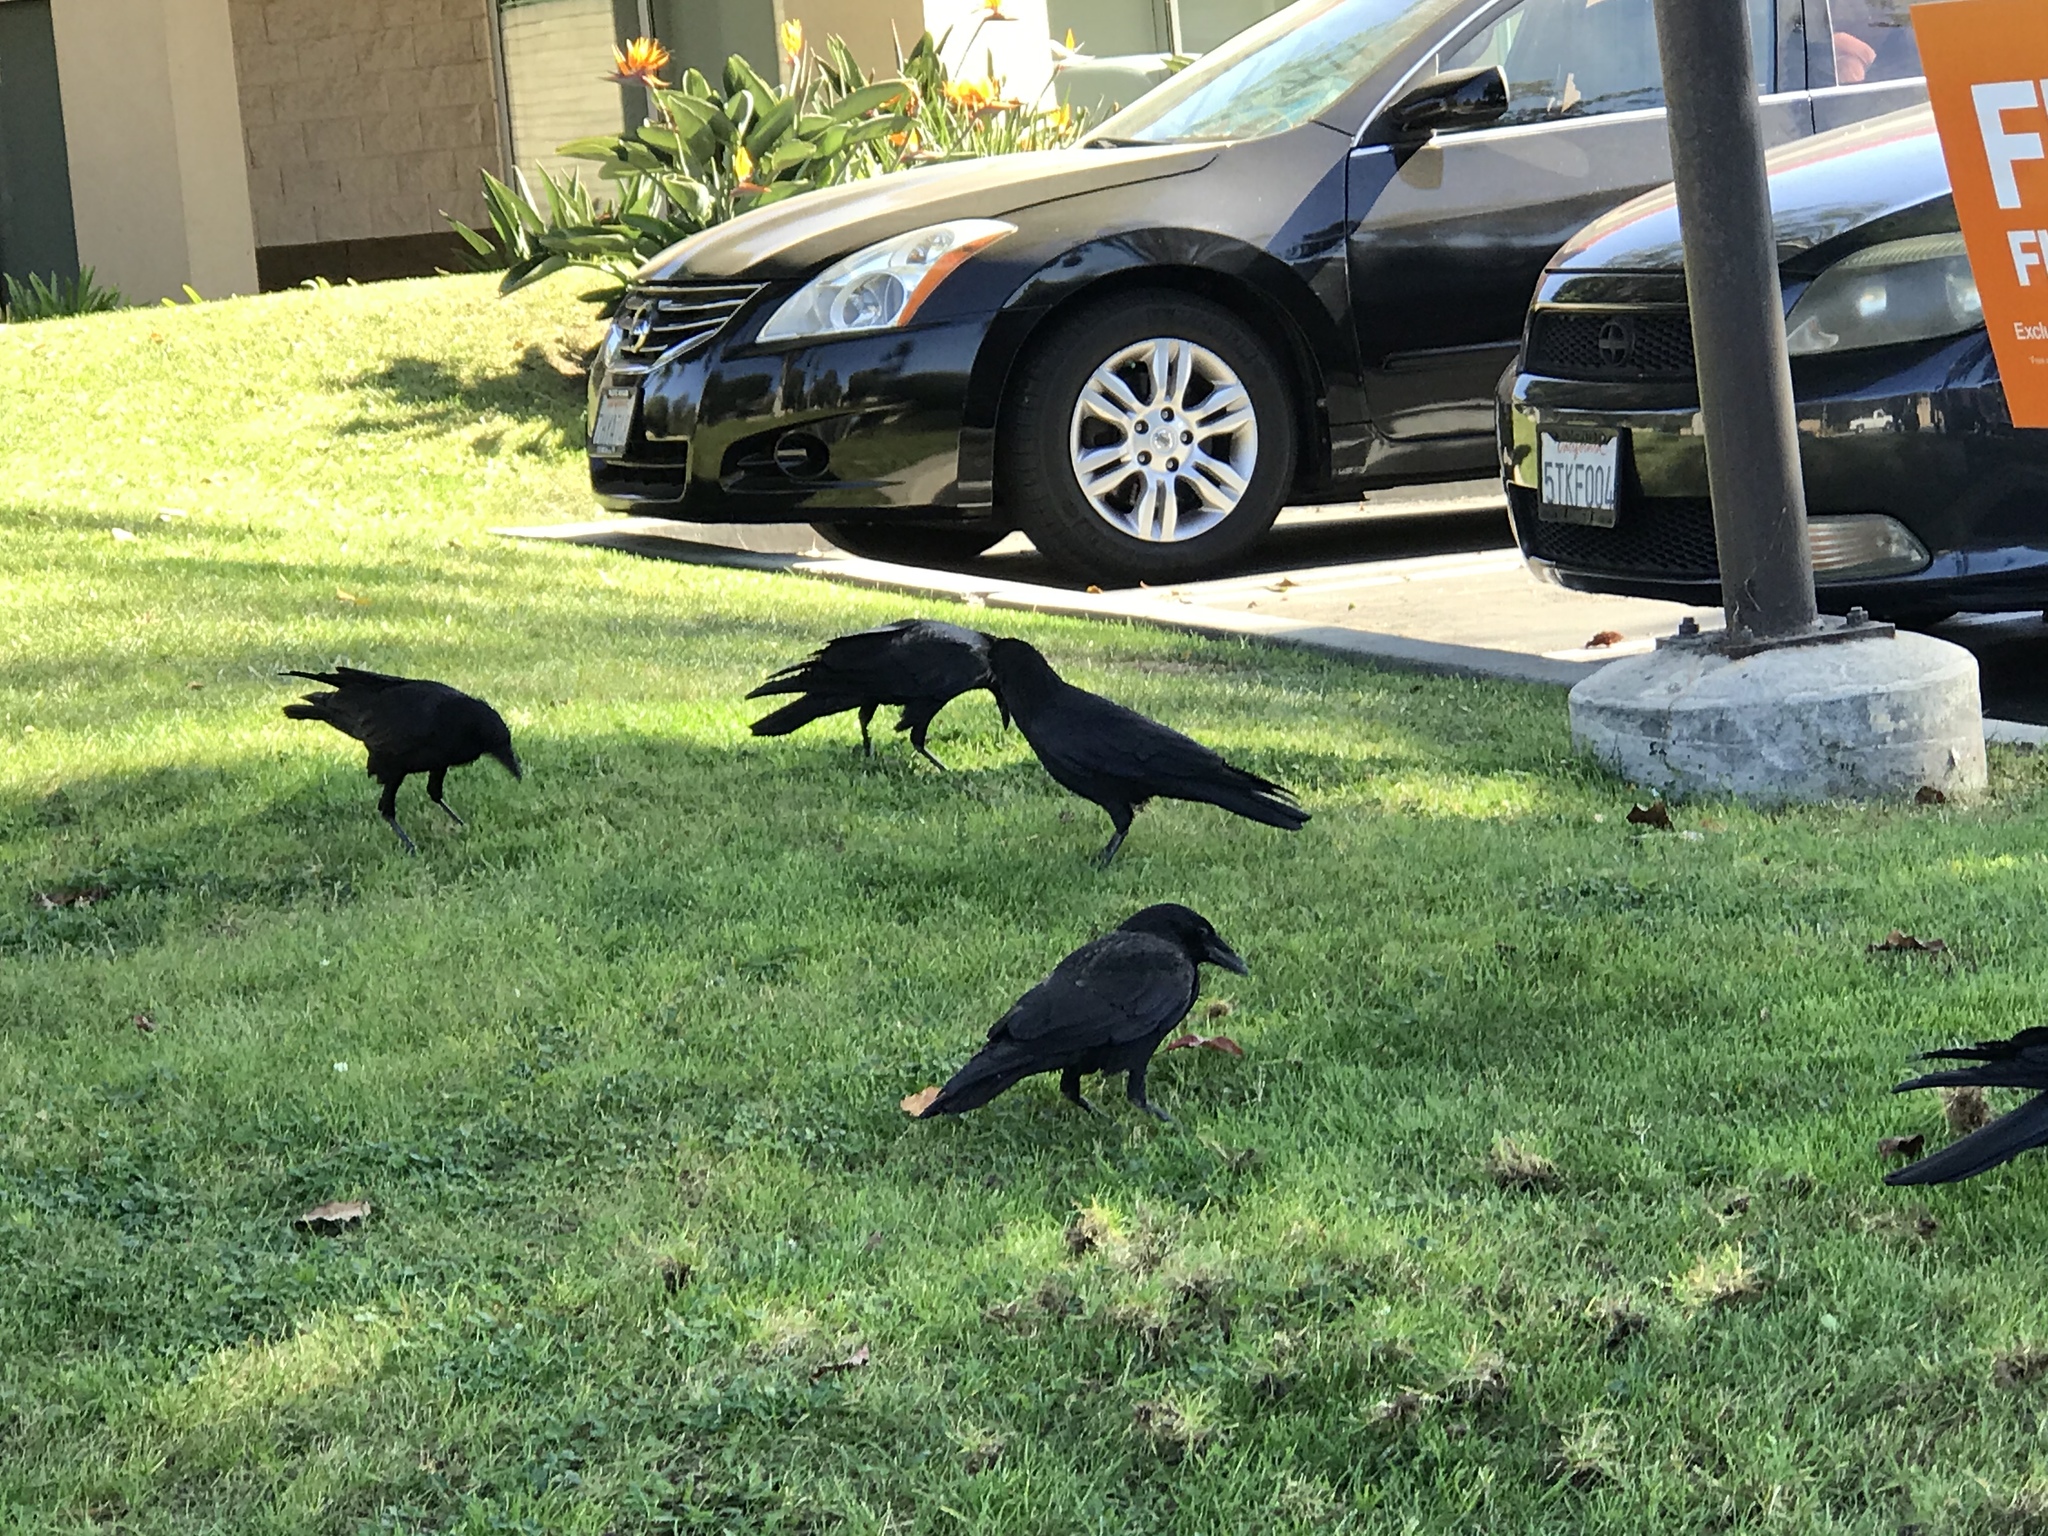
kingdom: Animalia
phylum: Chordata
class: Aves
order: Passeriformes
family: Corvidae
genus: Corvus
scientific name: Corvus brachyrhynchos
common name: American crow
